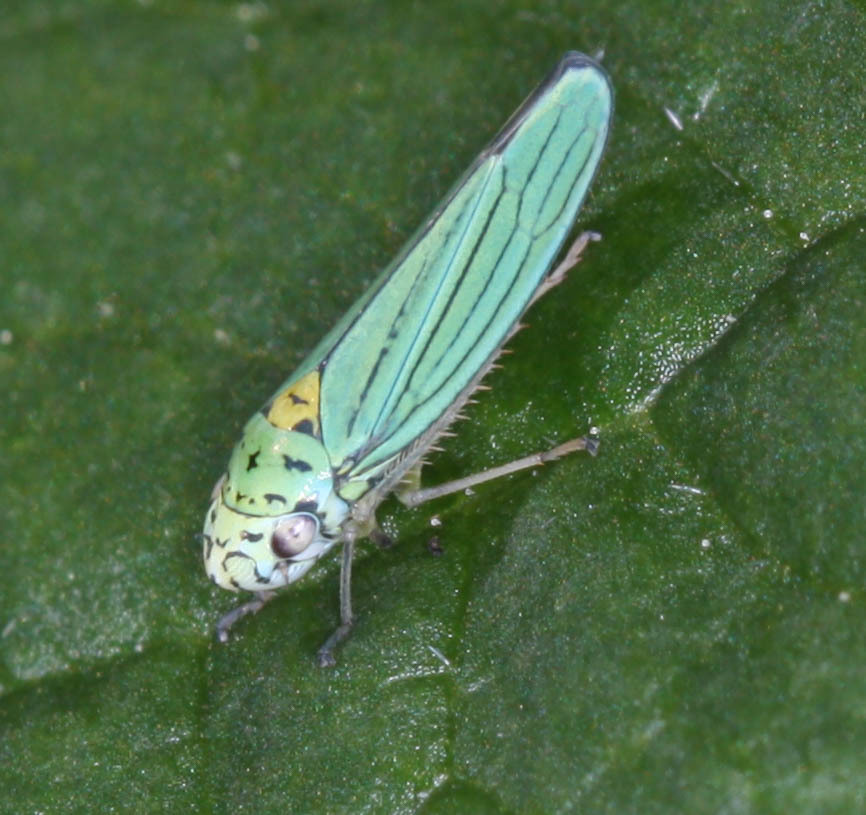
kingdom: Animalia
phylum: Arthropoda
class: Insecta
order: Hemiptera
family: Cicadellidae
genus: Graphocephala
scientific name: Graphocephala atropunctata
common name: Blue-green sharpshooter
